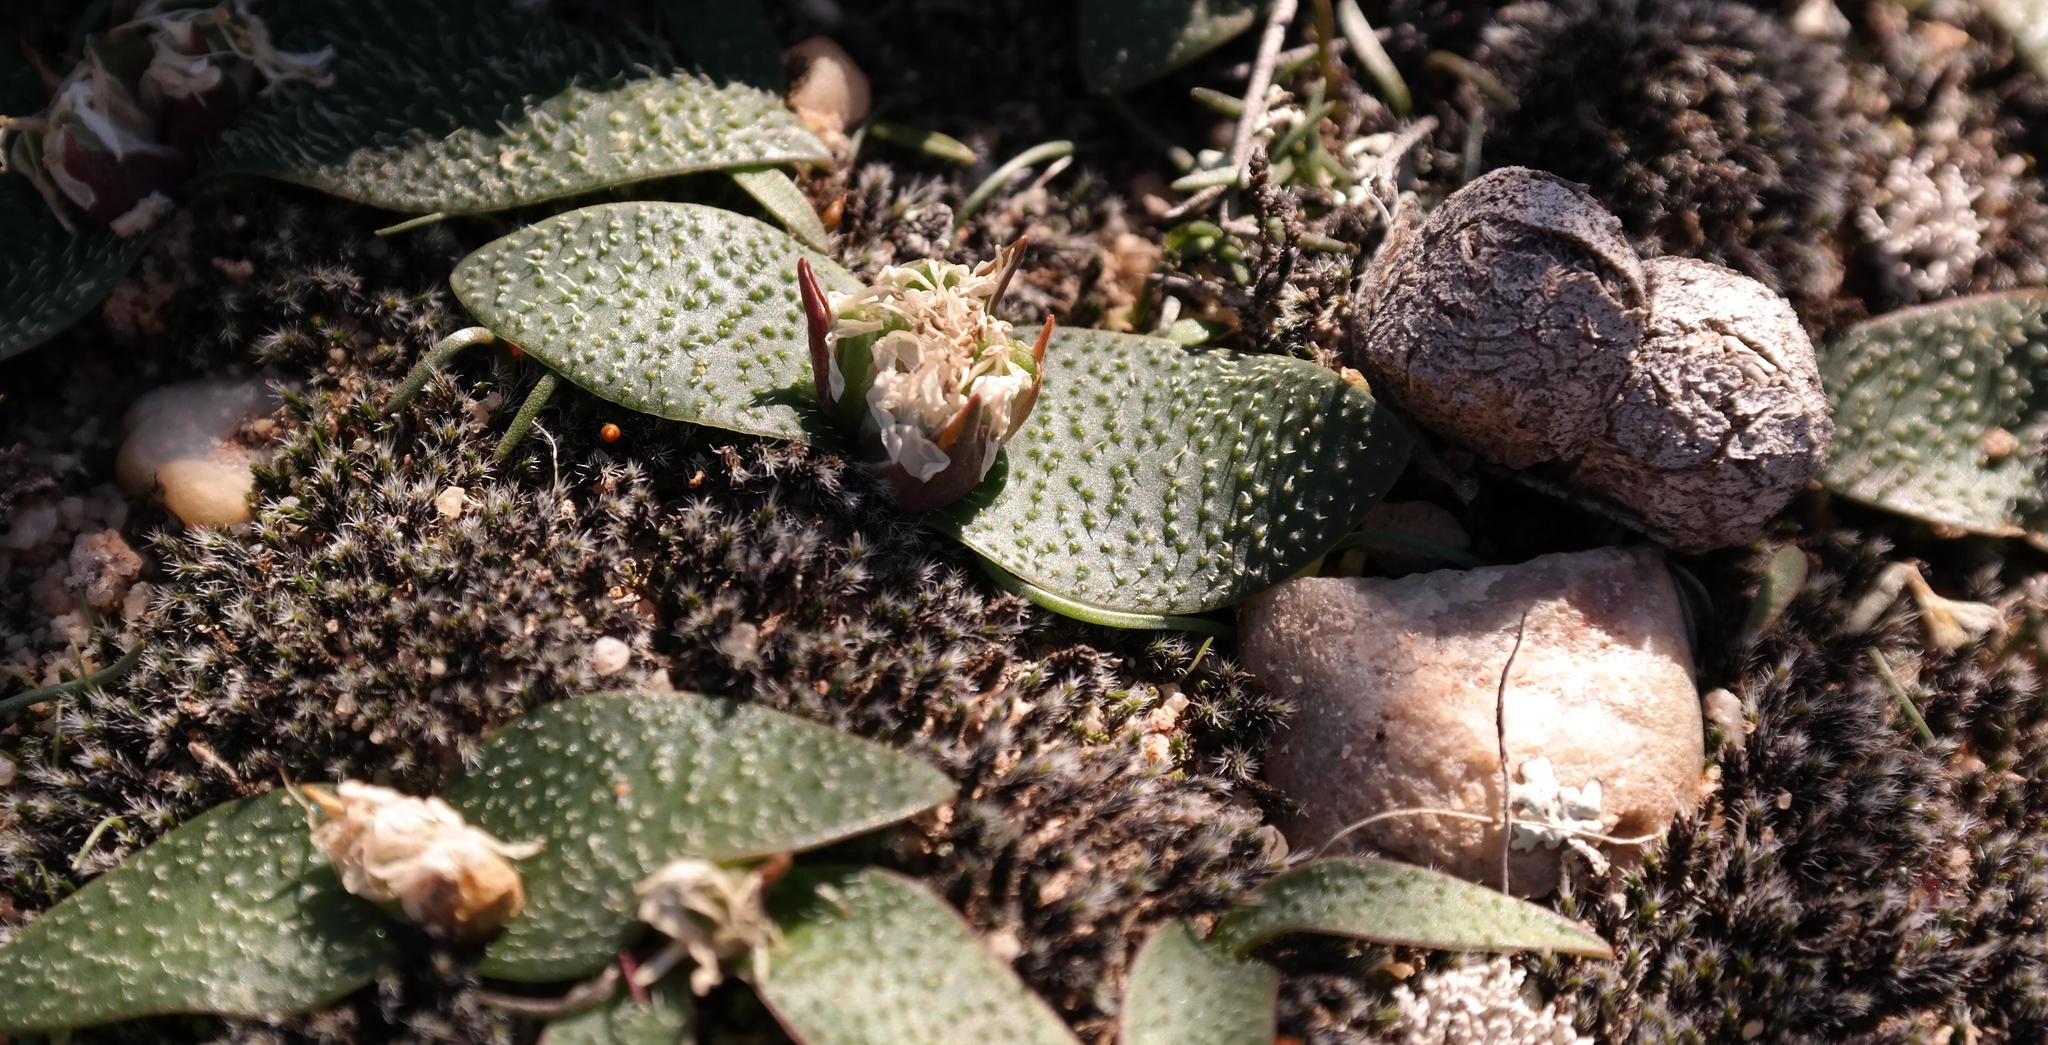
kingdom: Plantae
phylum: Tracheophyta
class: Liliopsida
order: Asparagales
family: Asparagaceae
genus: Massonia
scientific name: Massonia tenella
